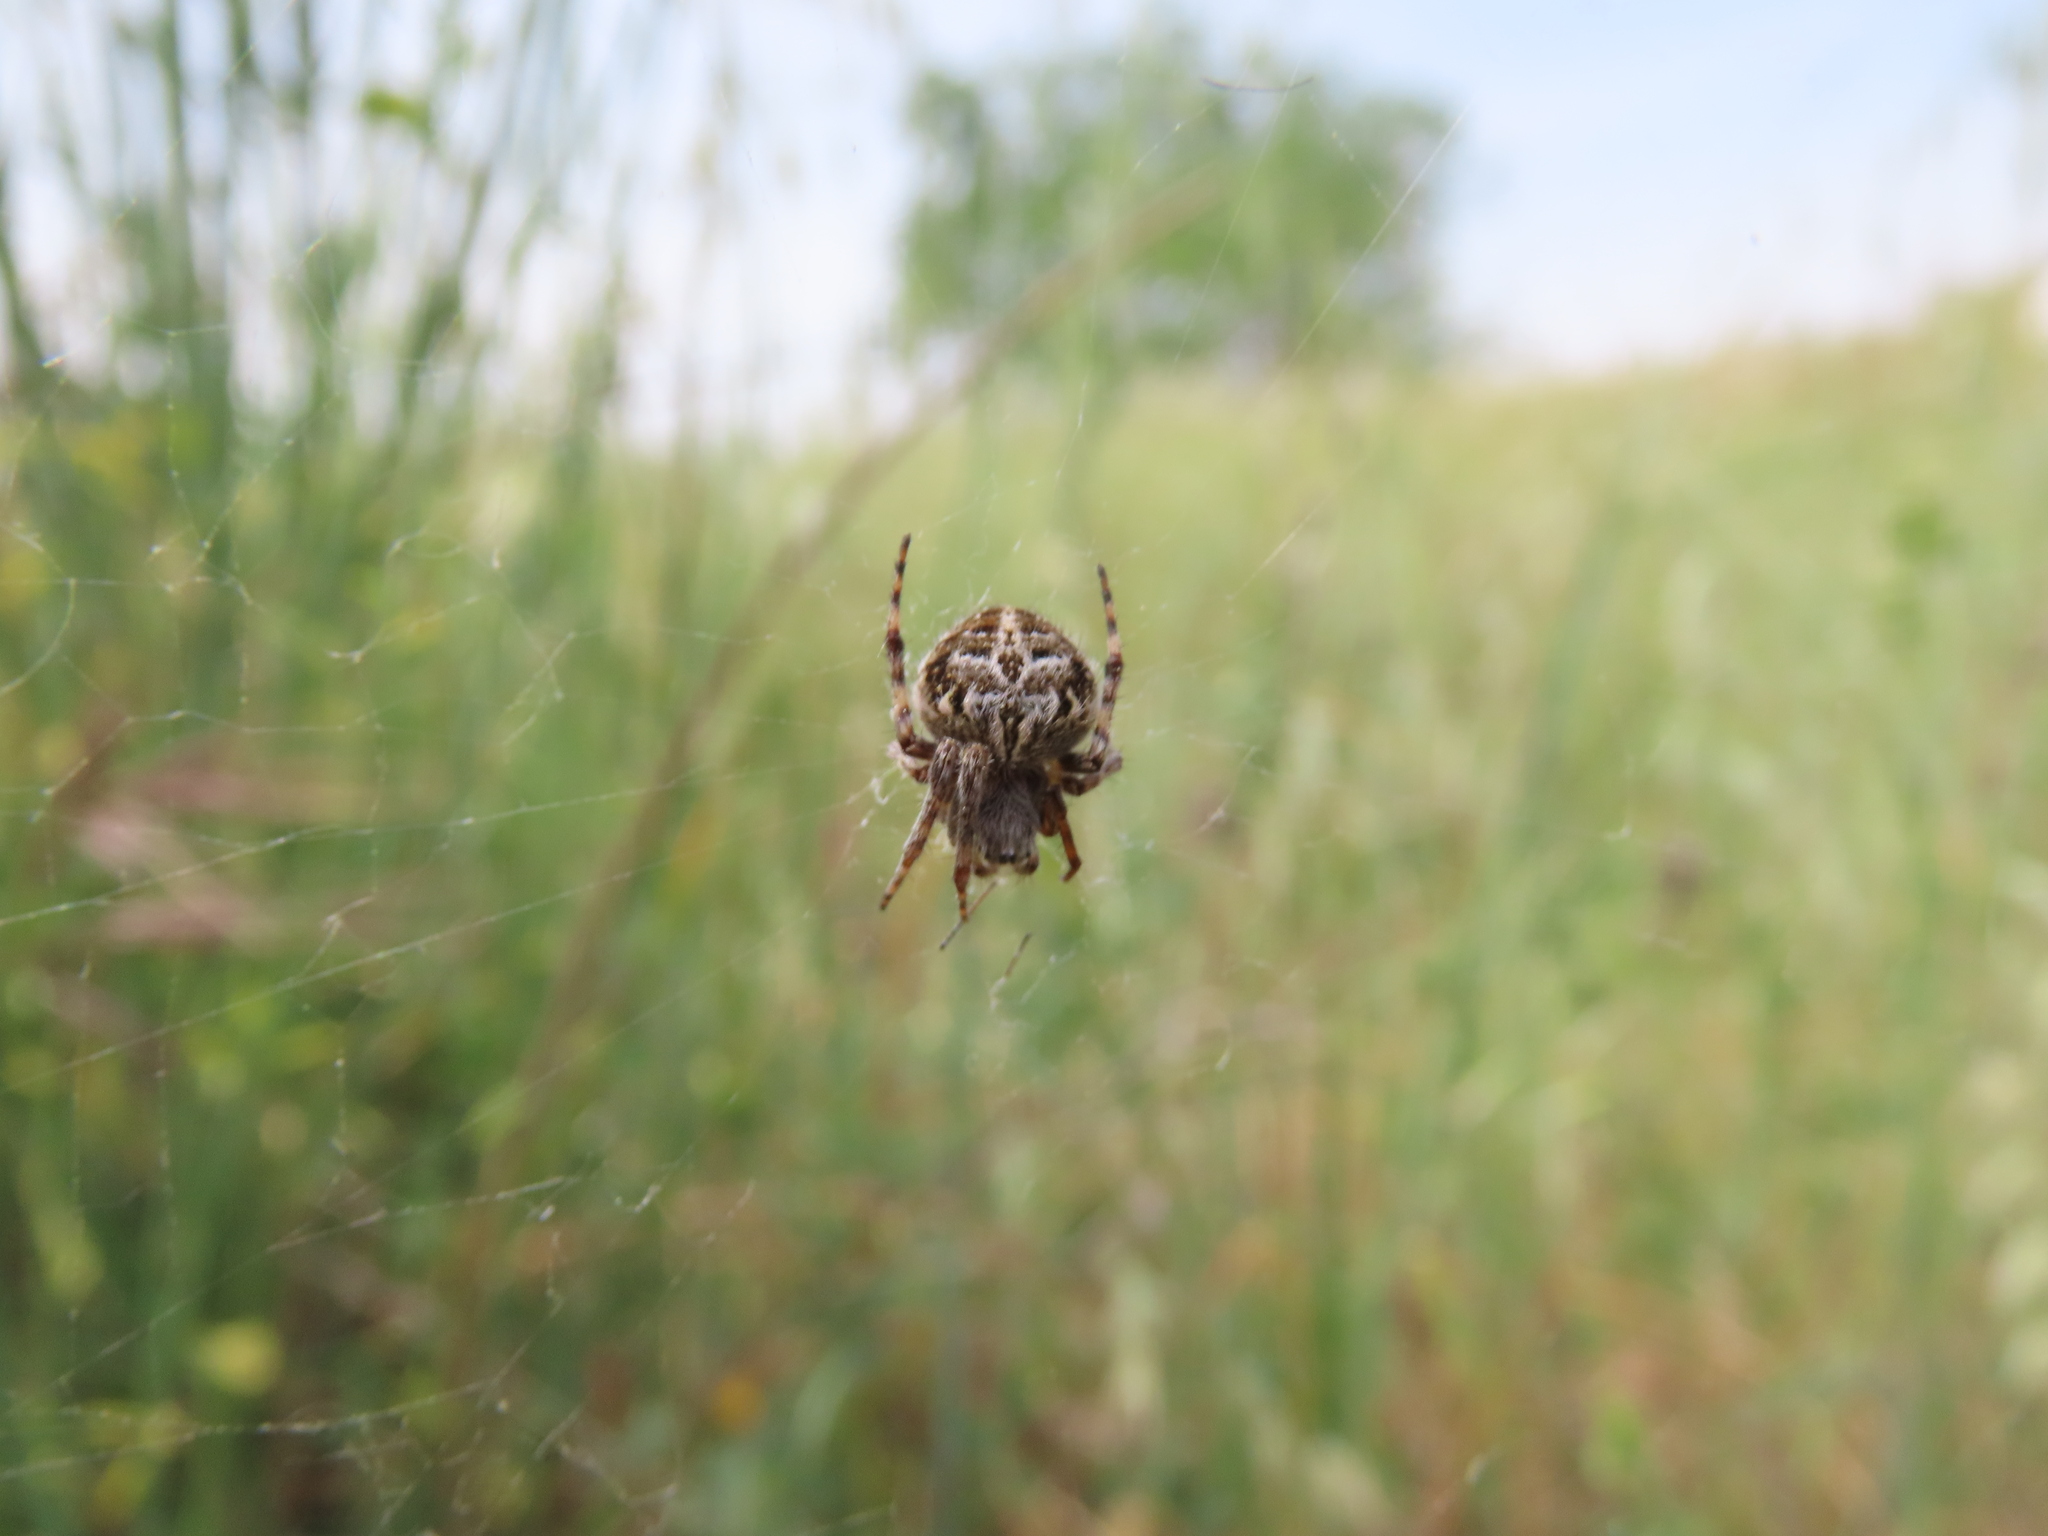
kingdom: Animalia
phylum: Arthropoda
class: Arachnida
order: Araneae
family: Araneidae
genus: Agalenatea
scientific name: Agalenatea redii
